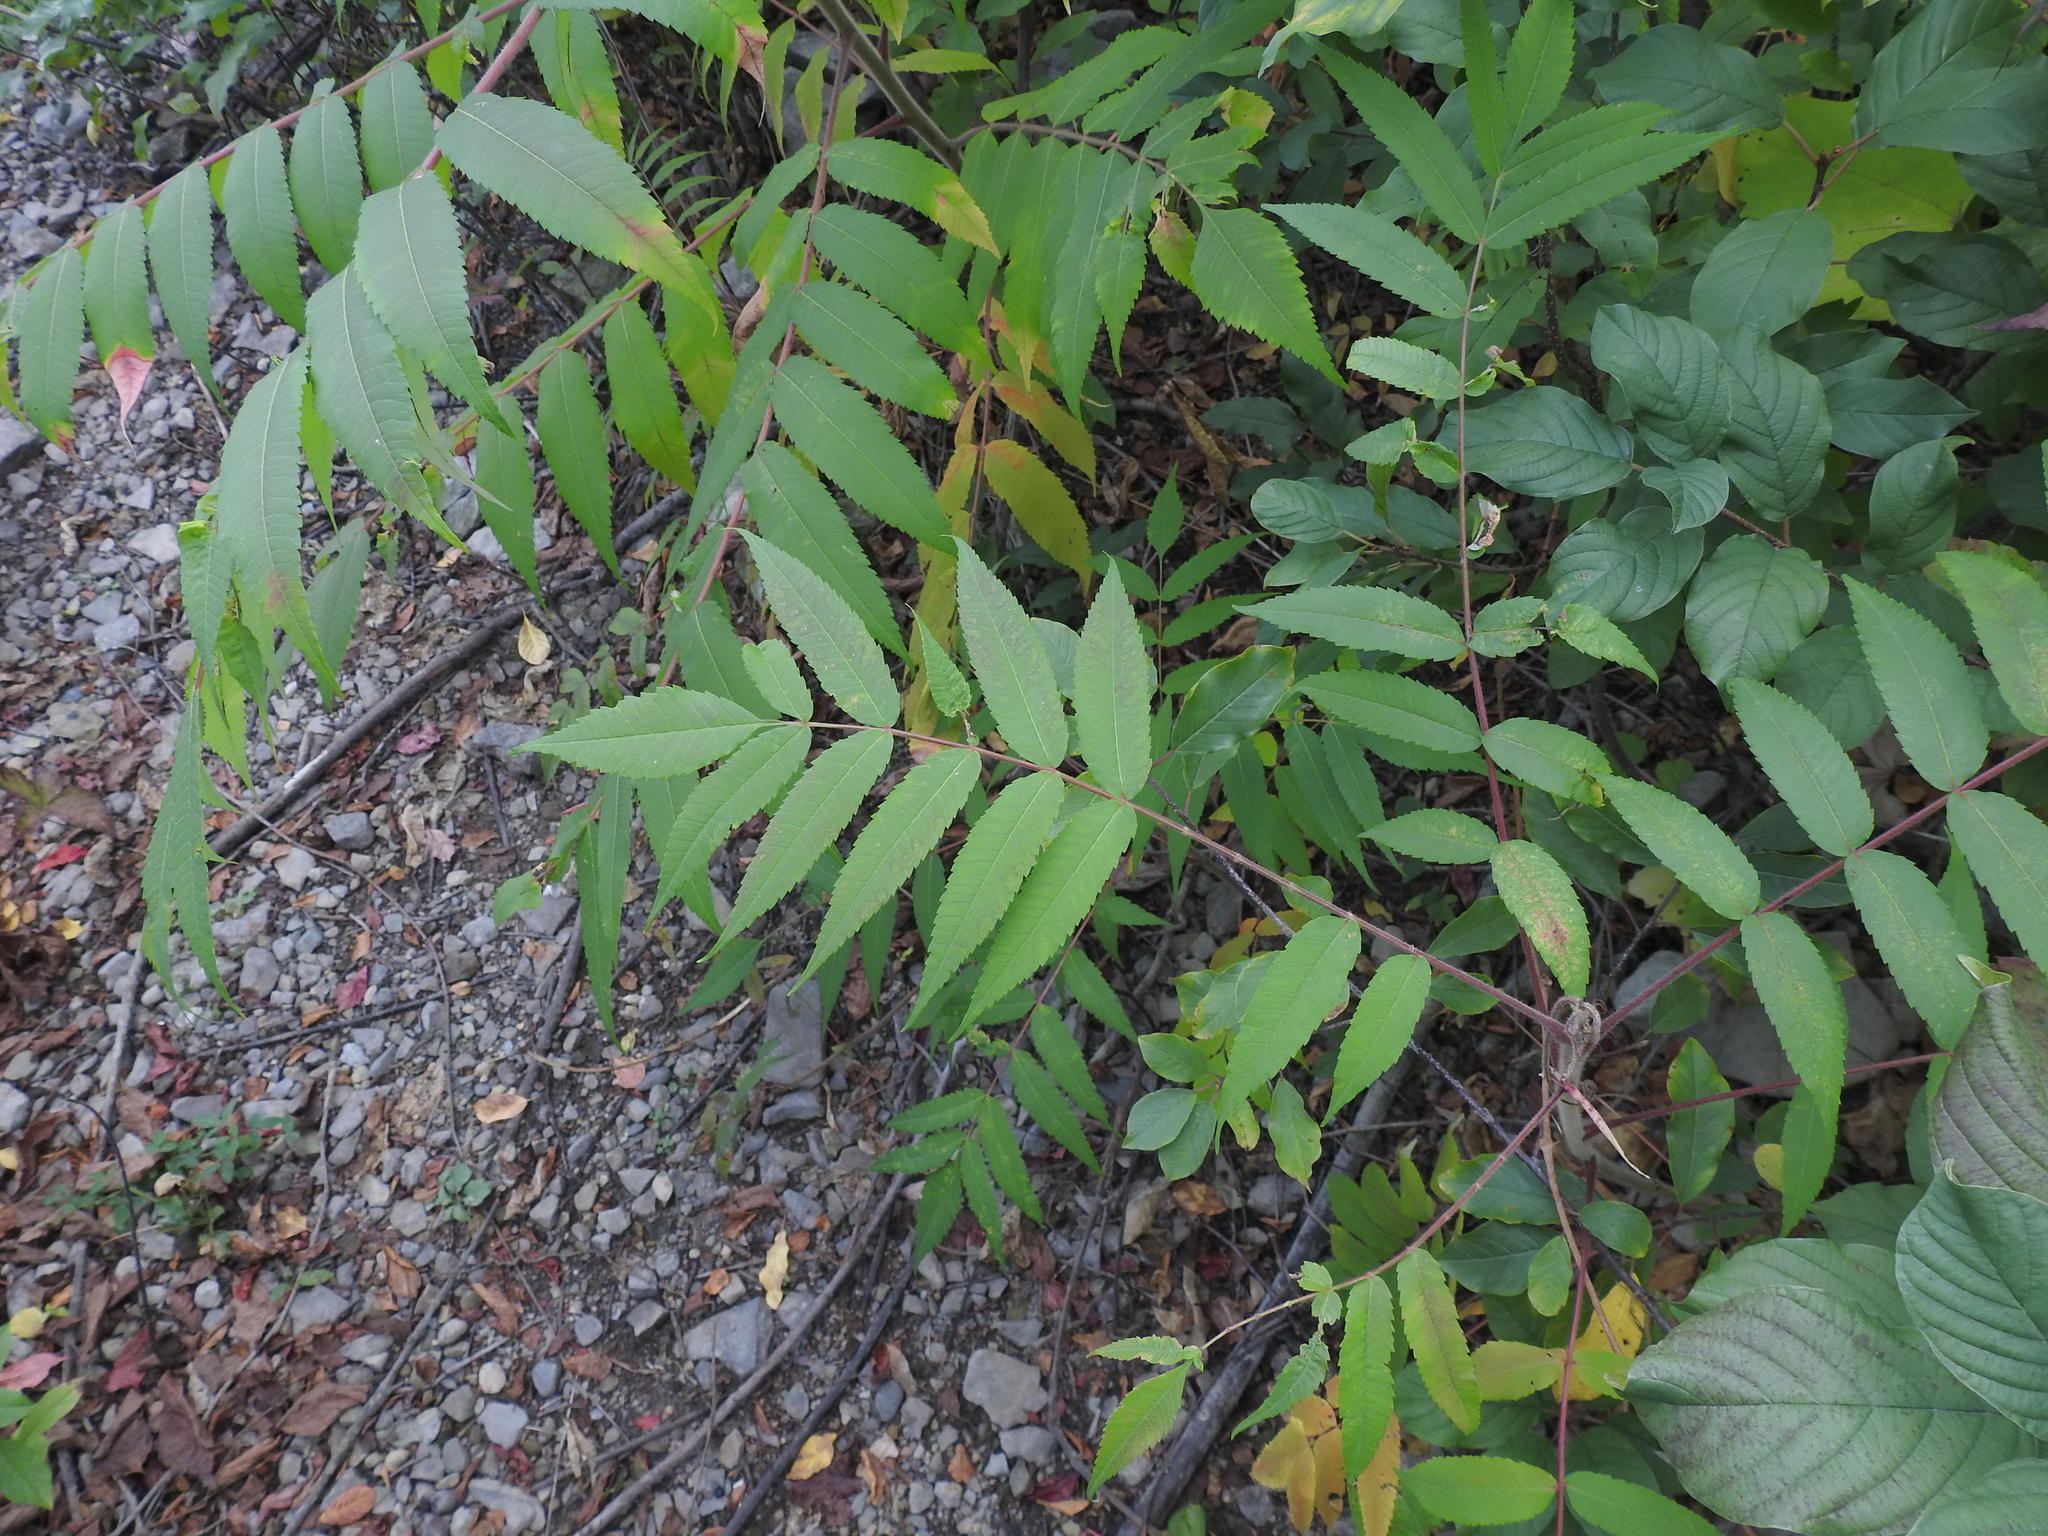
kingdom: Plantae
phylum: Tracheophyta
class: Magnoliopsida
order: Sapindales
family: Anacardiaceae
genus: Rhus
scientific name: Rhus typhina
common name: Staghorn sumac
